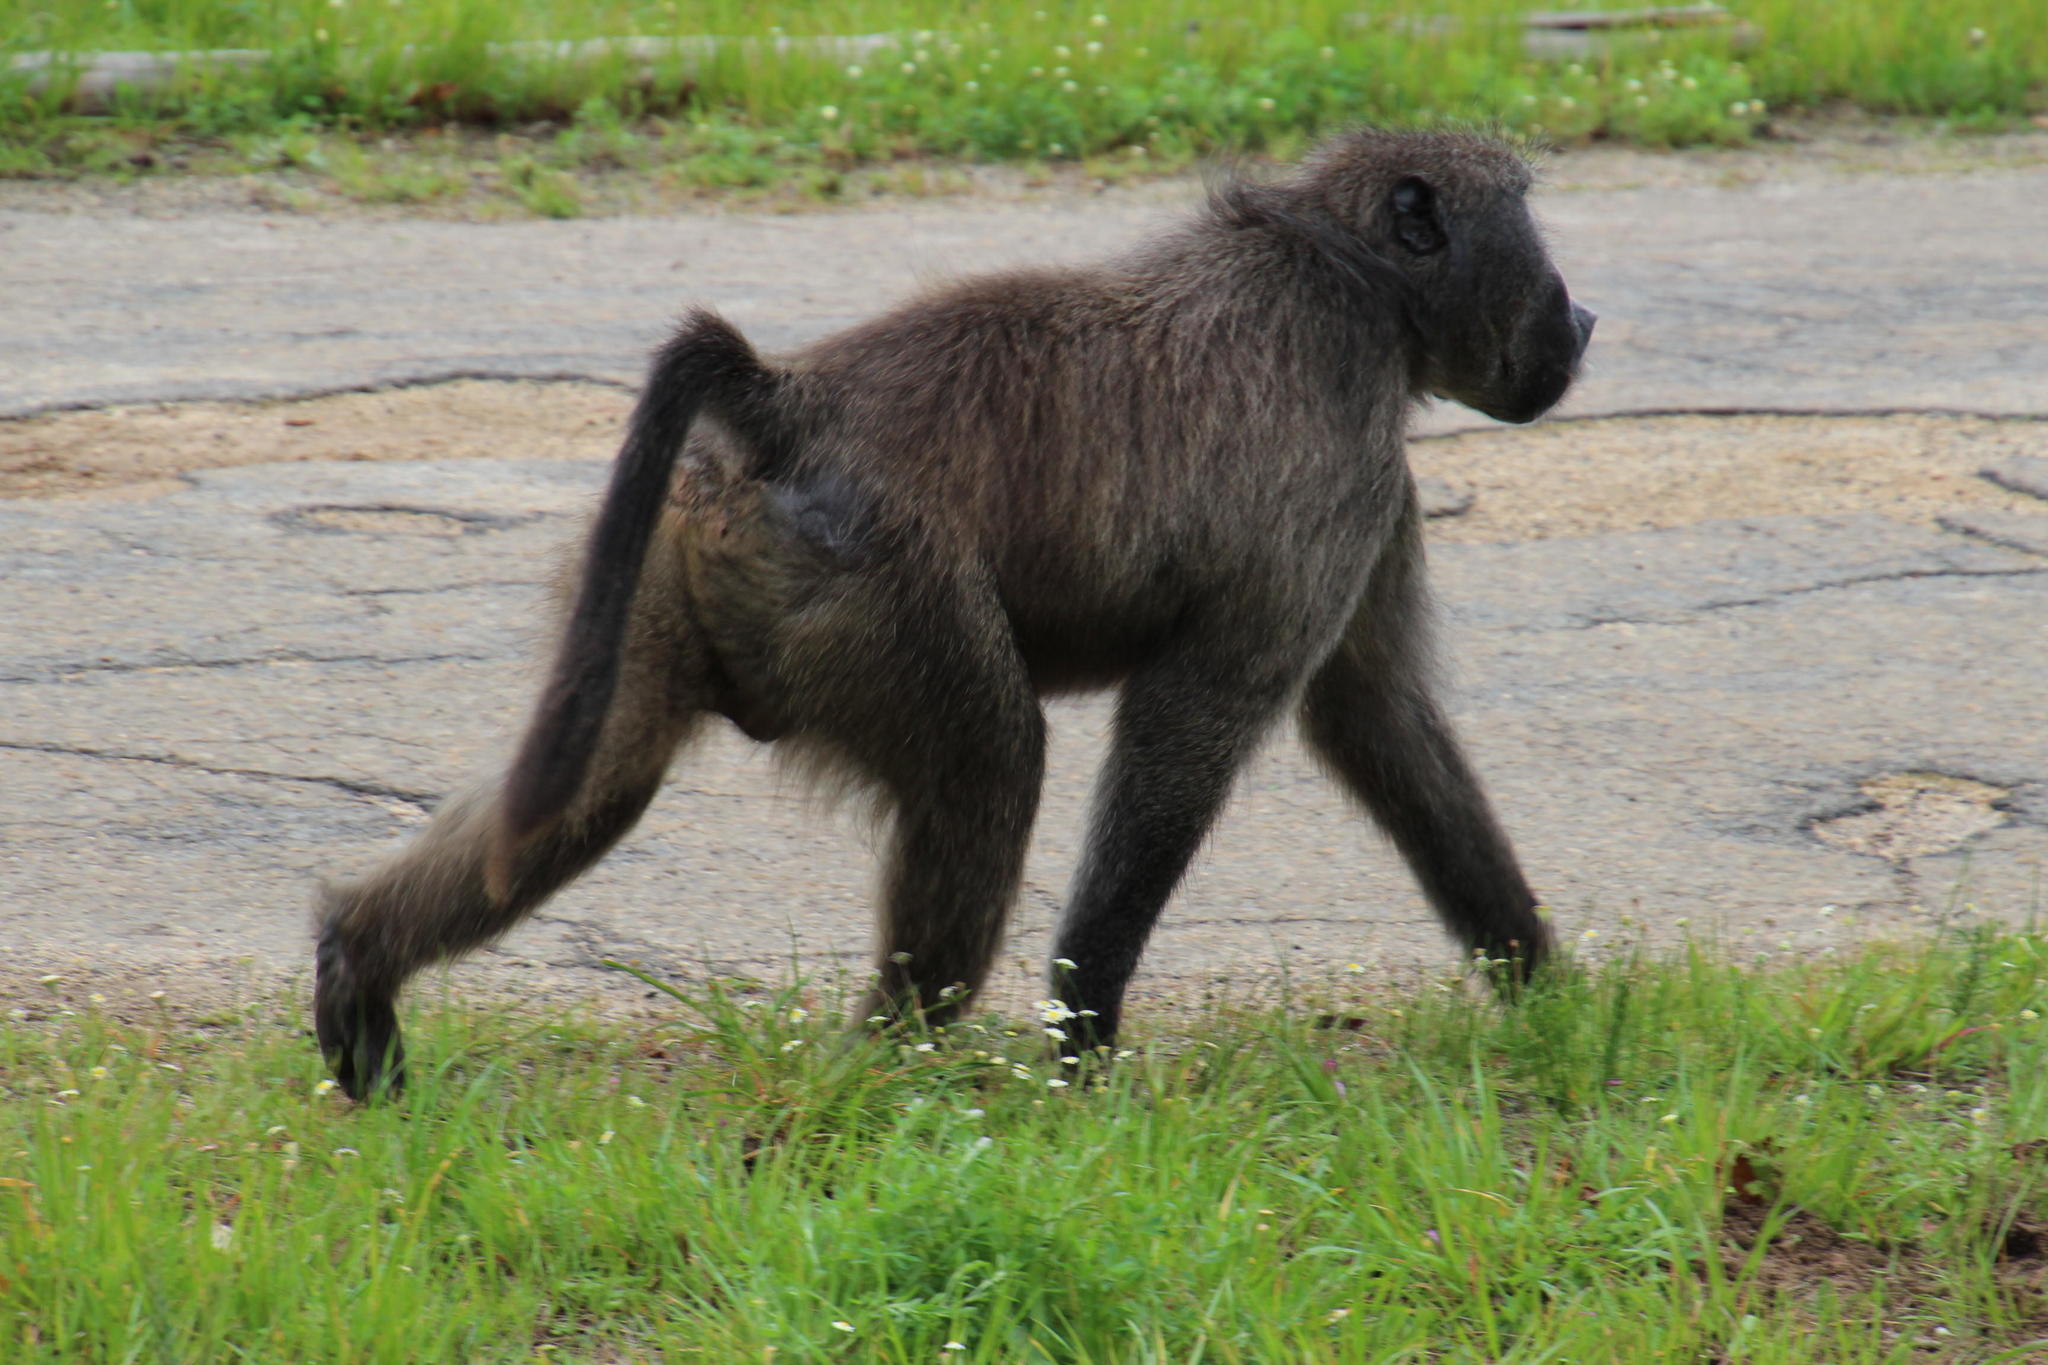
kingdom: Animalia
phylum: Chordata
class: Mammalia
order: Primates
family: Cercopithecidae
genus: Papio
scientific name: Papio ursinus
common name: Chacma baboon
